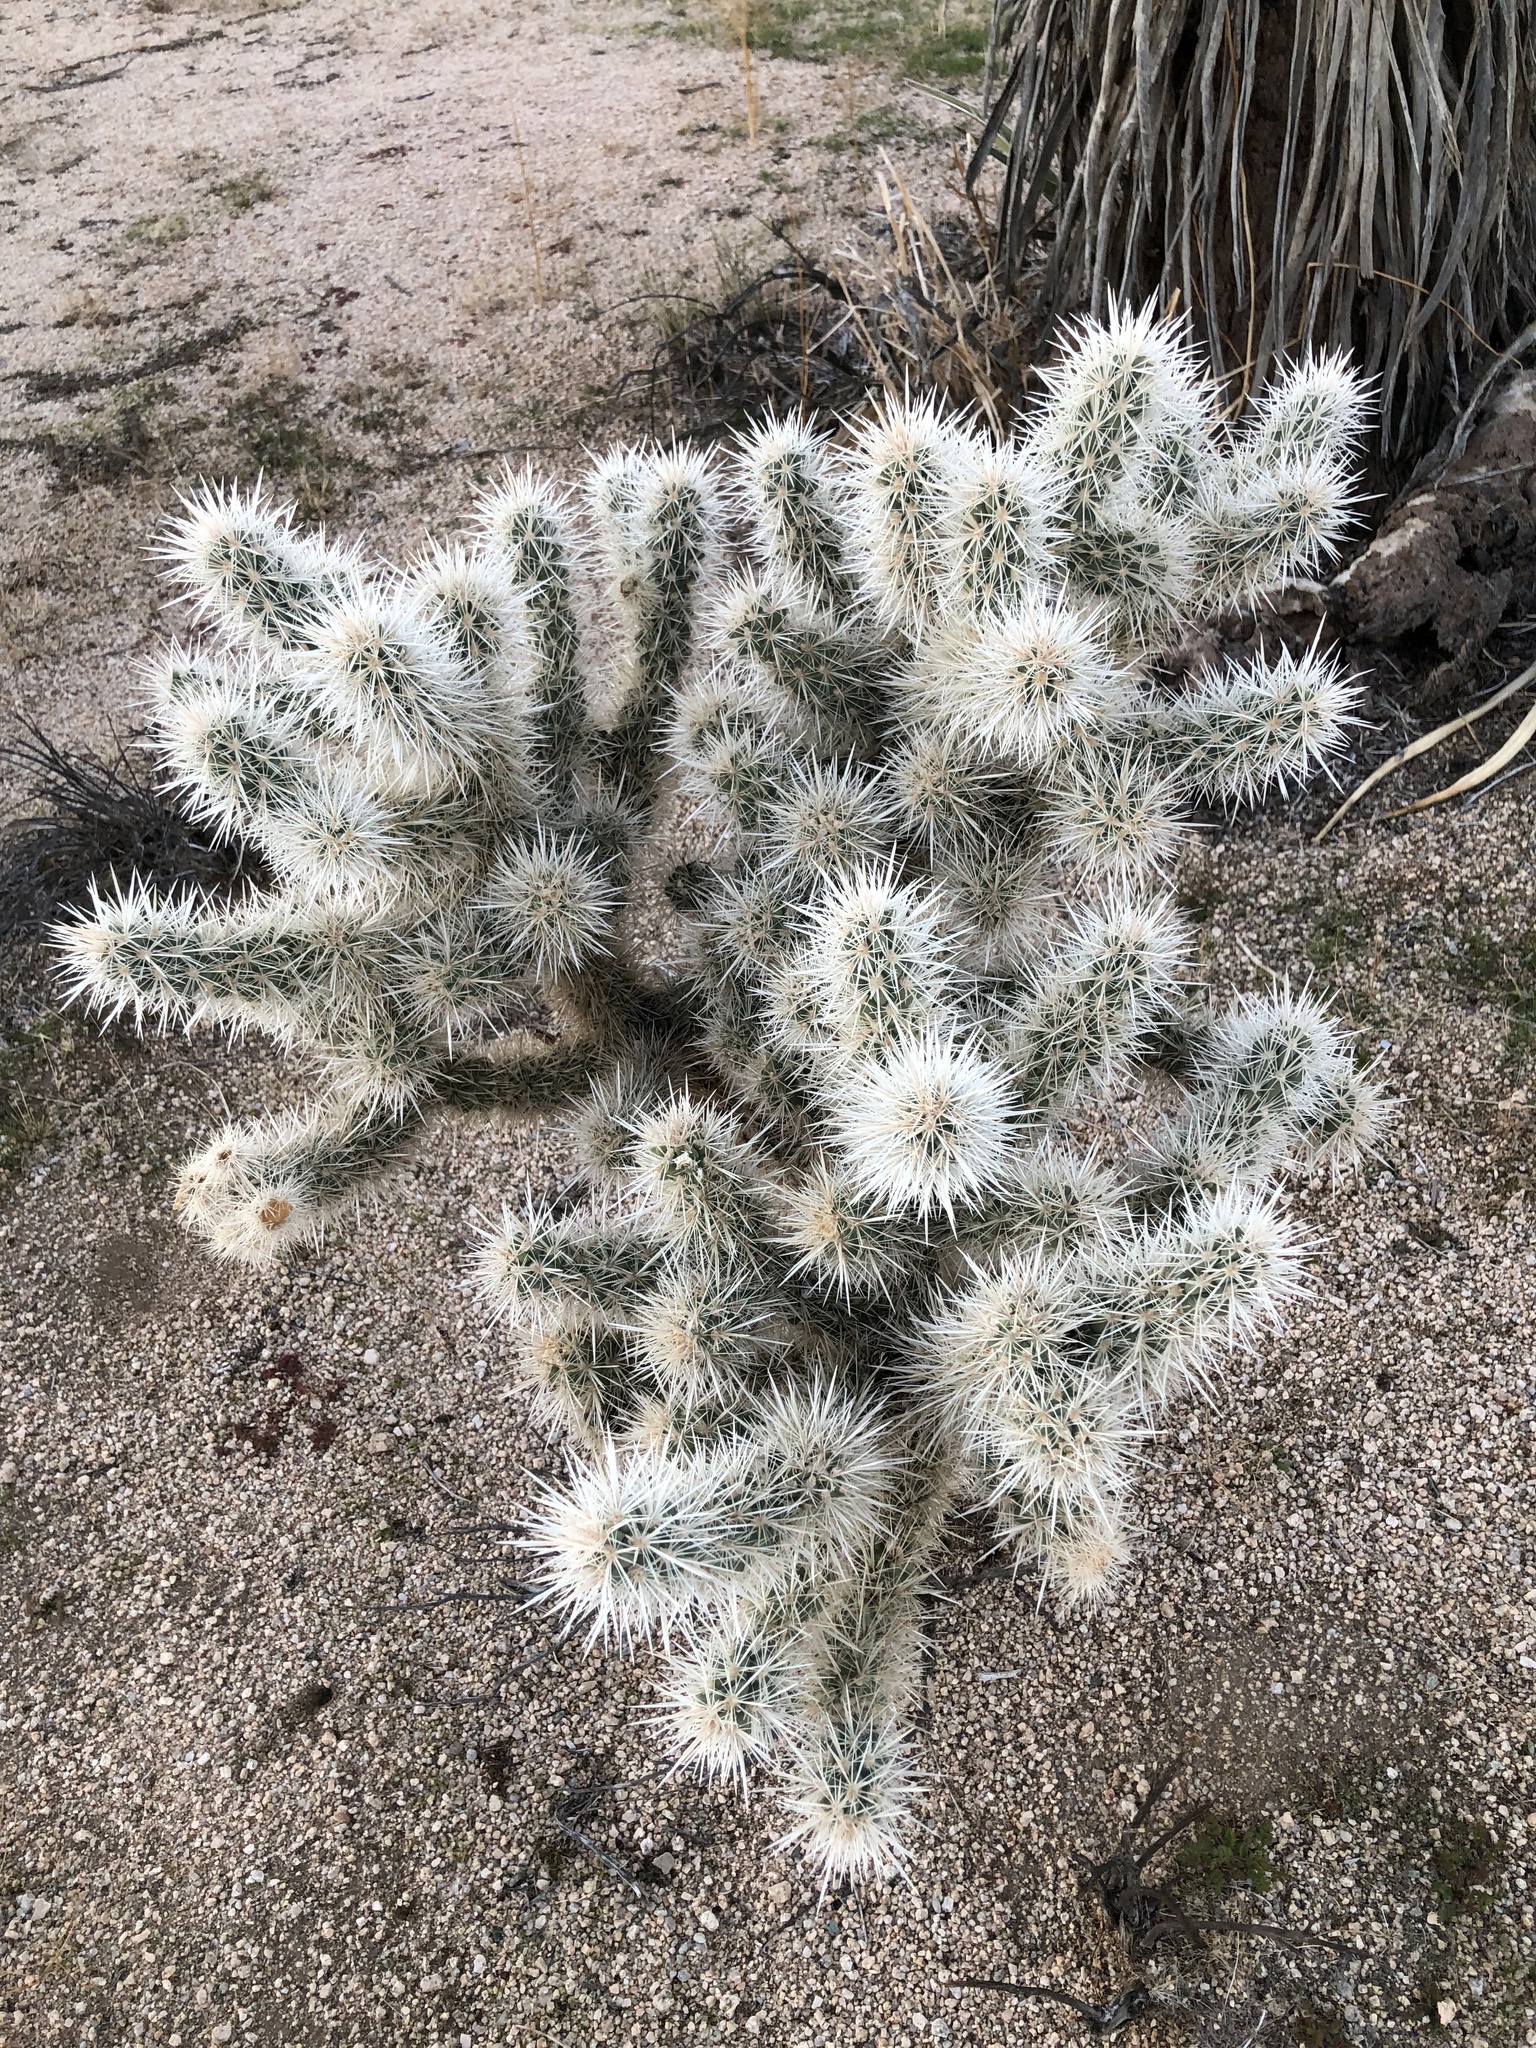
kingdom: Plantae
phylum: Tracheophyta
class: Magnoliopsida
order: Caryophyllales
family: Cactaceae
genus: Cylindropuntia
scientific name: Cylindropuntia echinocarpa
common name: Ground cholla
